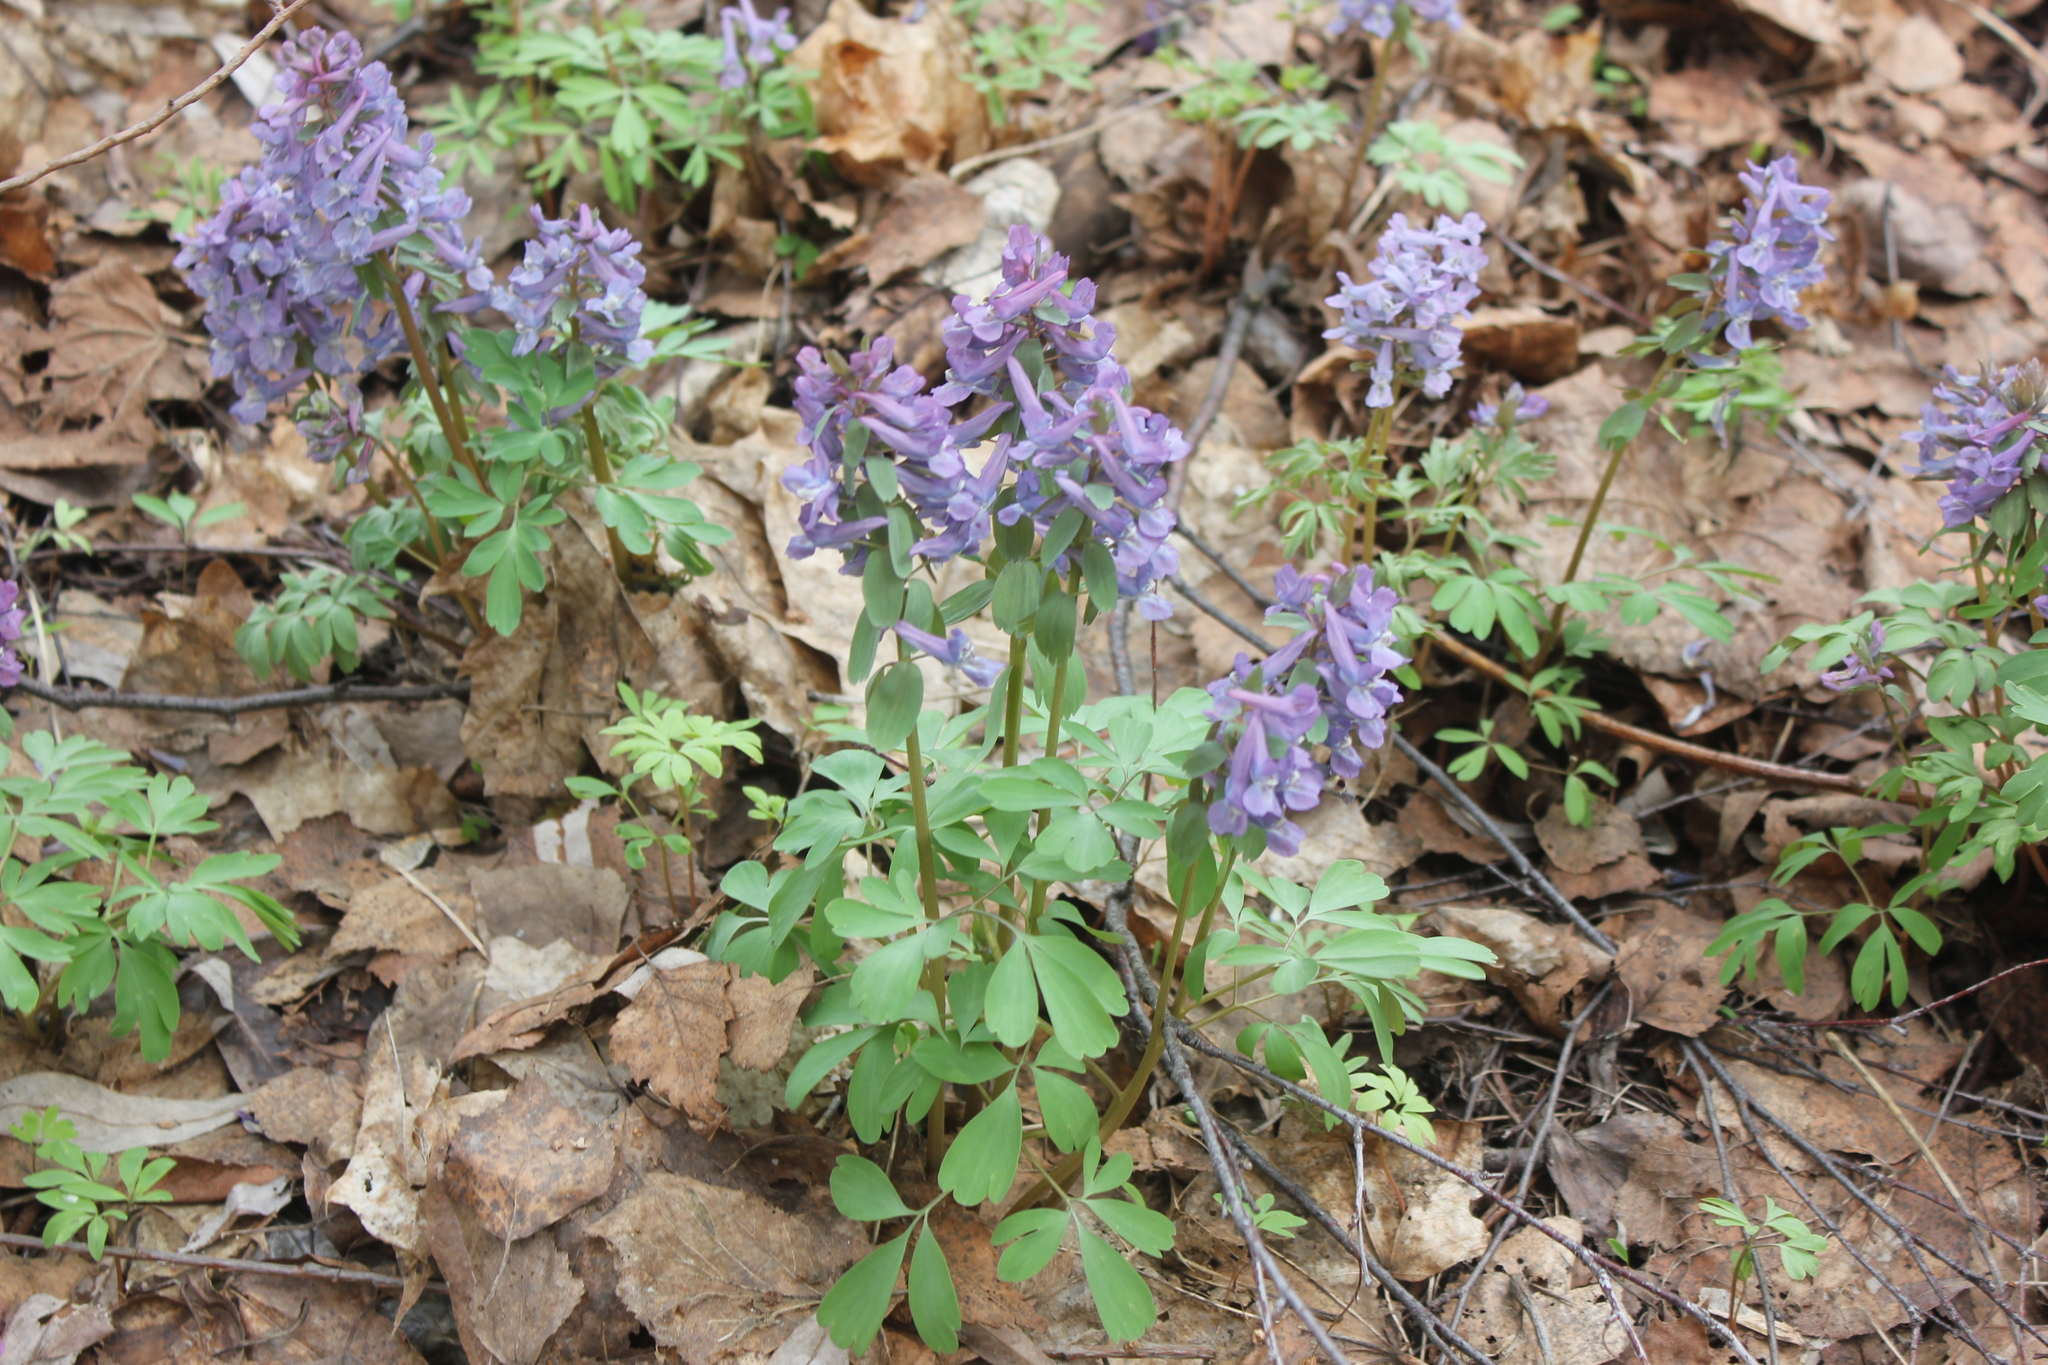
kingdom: Plantae
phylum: Tracheophyta
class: Magnoliopsida
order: Ranunculales
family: Papaveraceae
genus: Corydalis
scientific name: Corydalis solida
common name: Bird-in-a-bush
